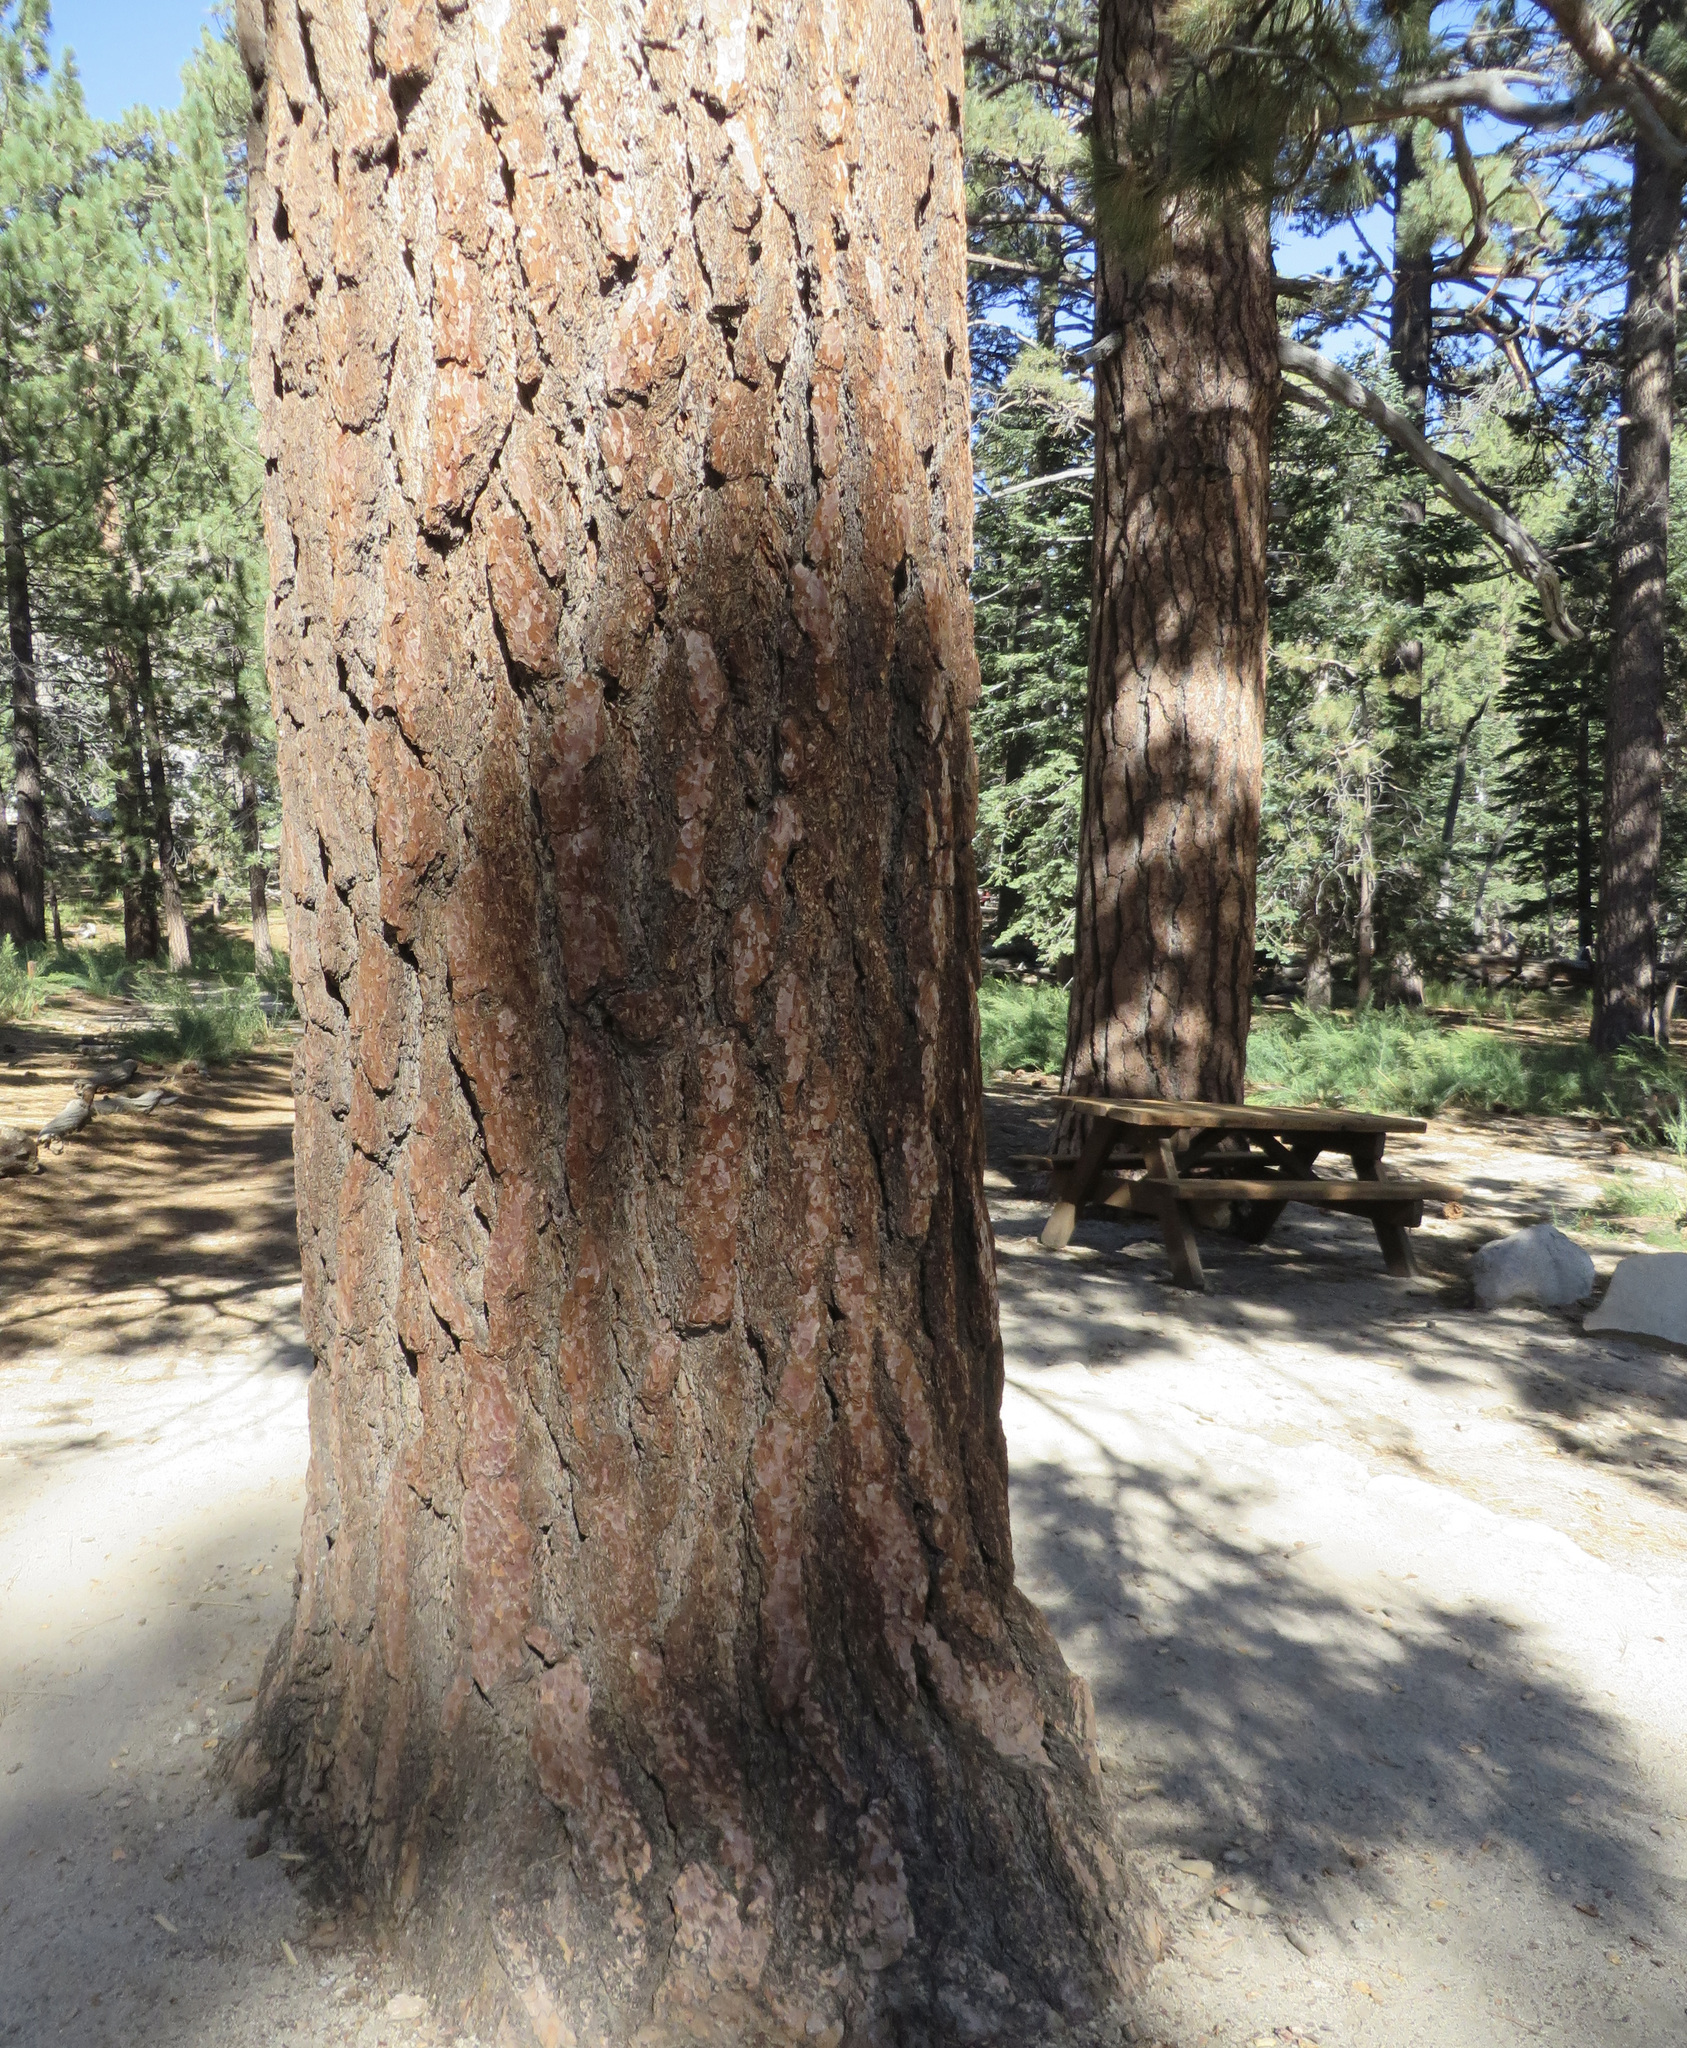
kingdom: Plantae
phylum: Tracheophyta
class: Pinopsida
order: Pinales
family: Pinaceae
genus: Pinus
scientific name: Pinus jeffreyi
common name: Jeffrey pine
